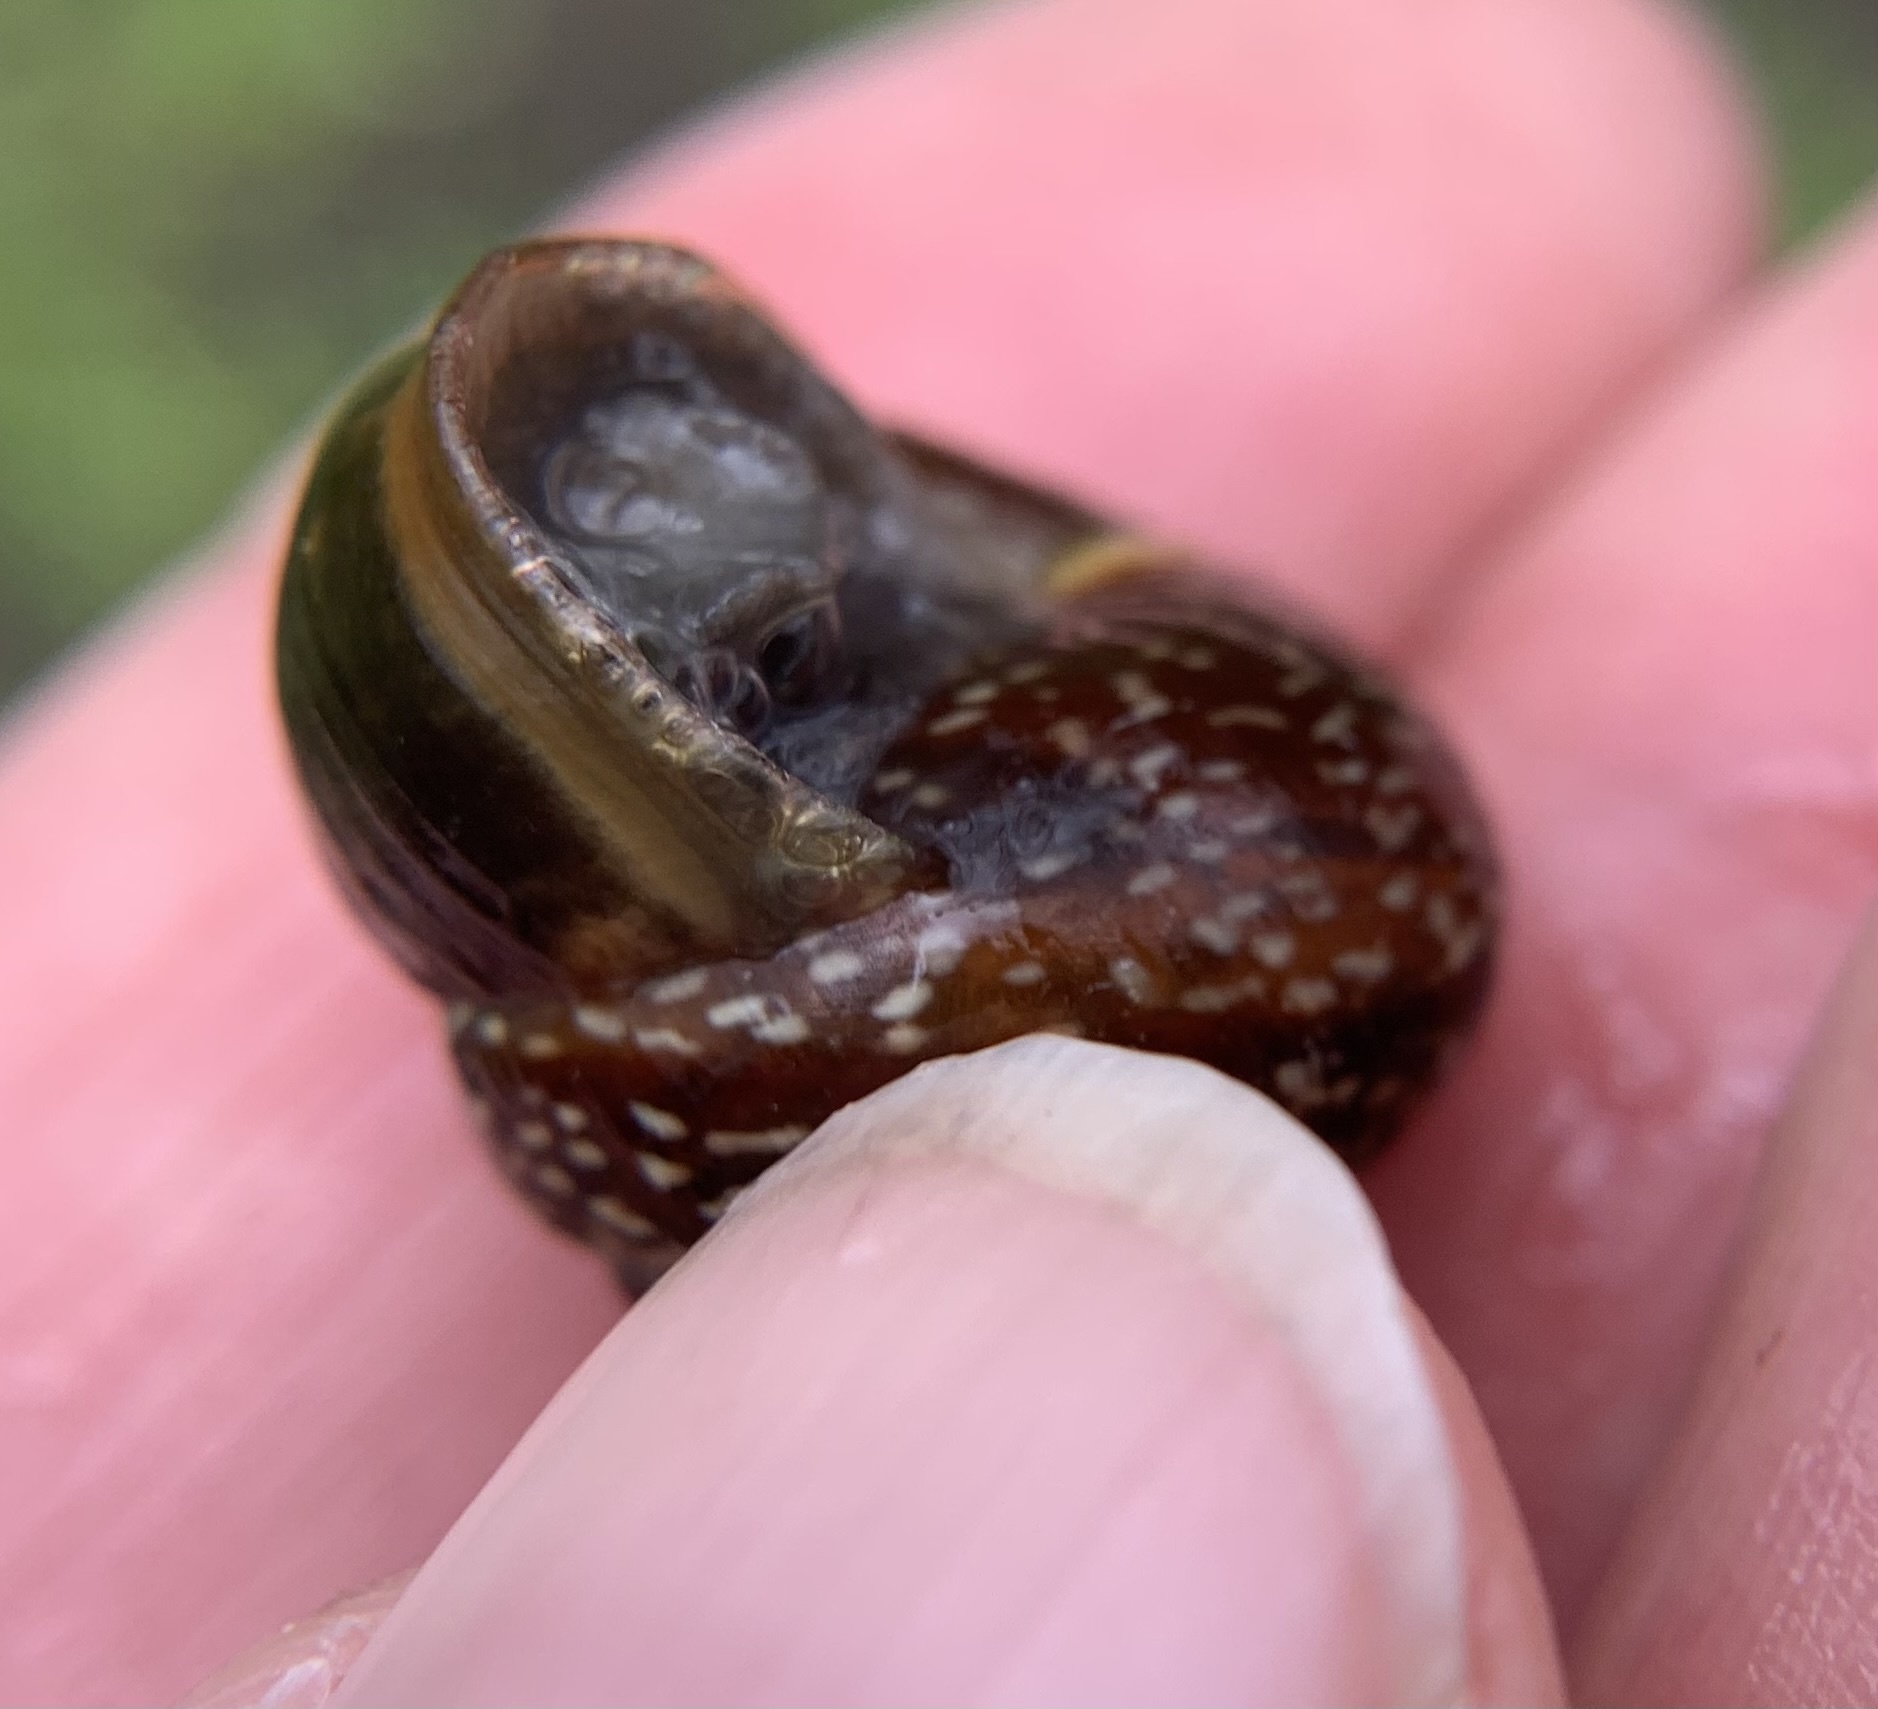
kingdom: Animalia
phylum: Mollusca
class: Gastropoda
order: Stylommatophora
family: Helicidae
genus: Arianta
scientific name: Arianta arbustorum
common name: Copse snail
